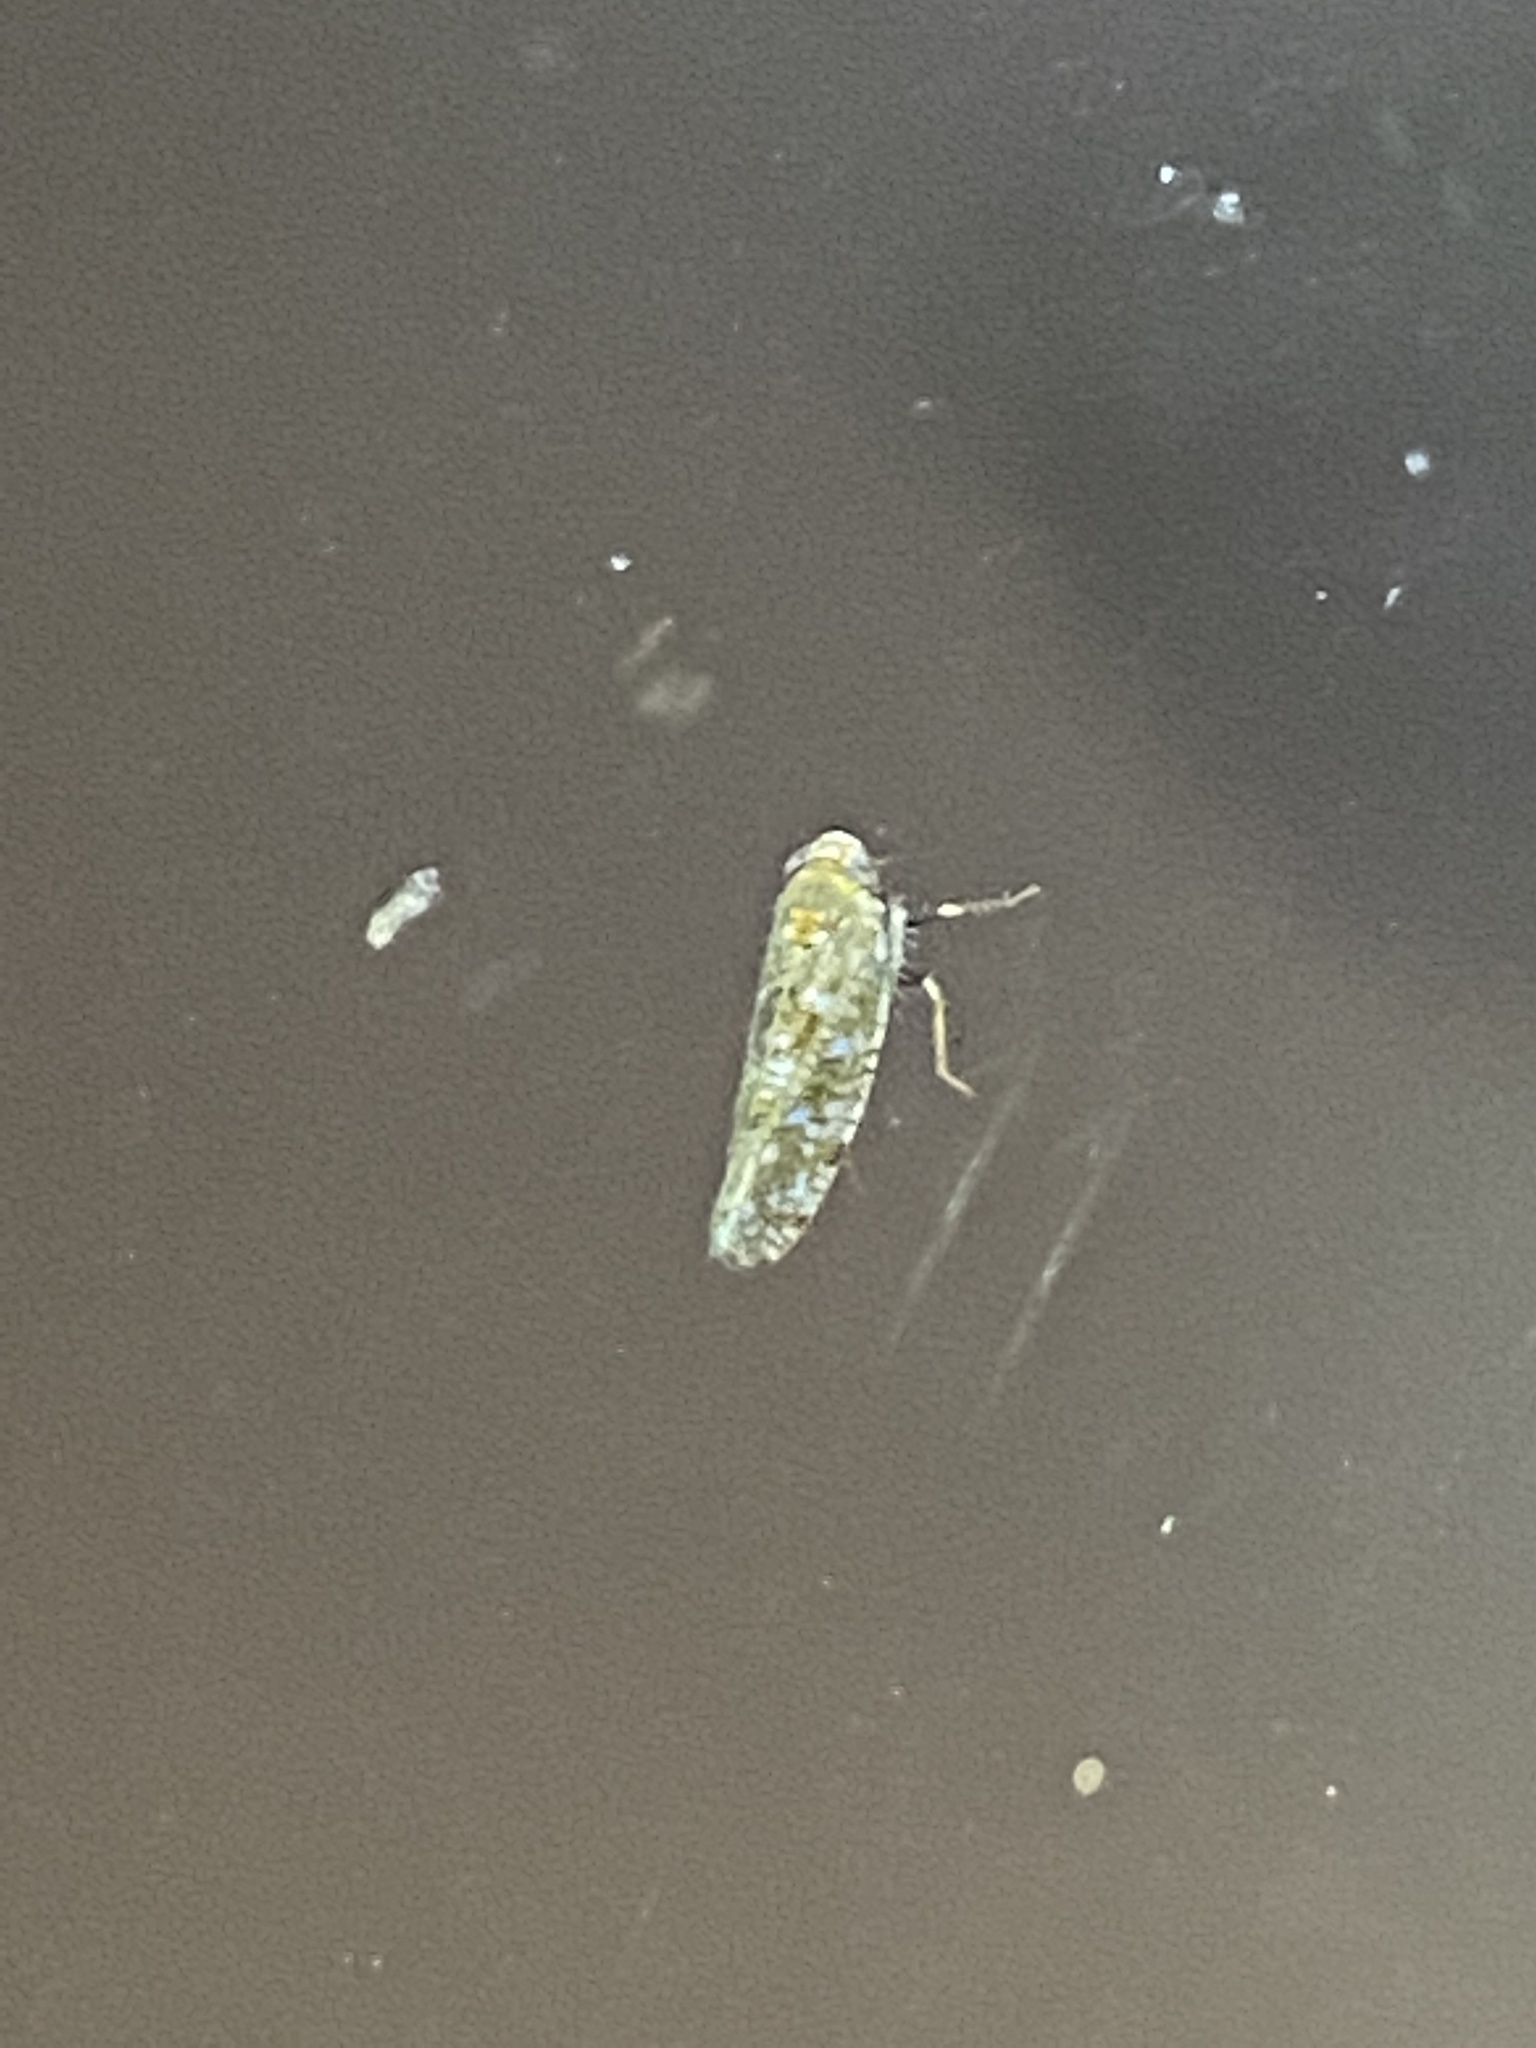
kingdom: Animalia
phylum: Arthropoda
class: Insecta
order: Hemiptera
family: Cicadellidae
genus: Orientus
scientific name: Orientus ishidae
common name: Japanese leafhopper
